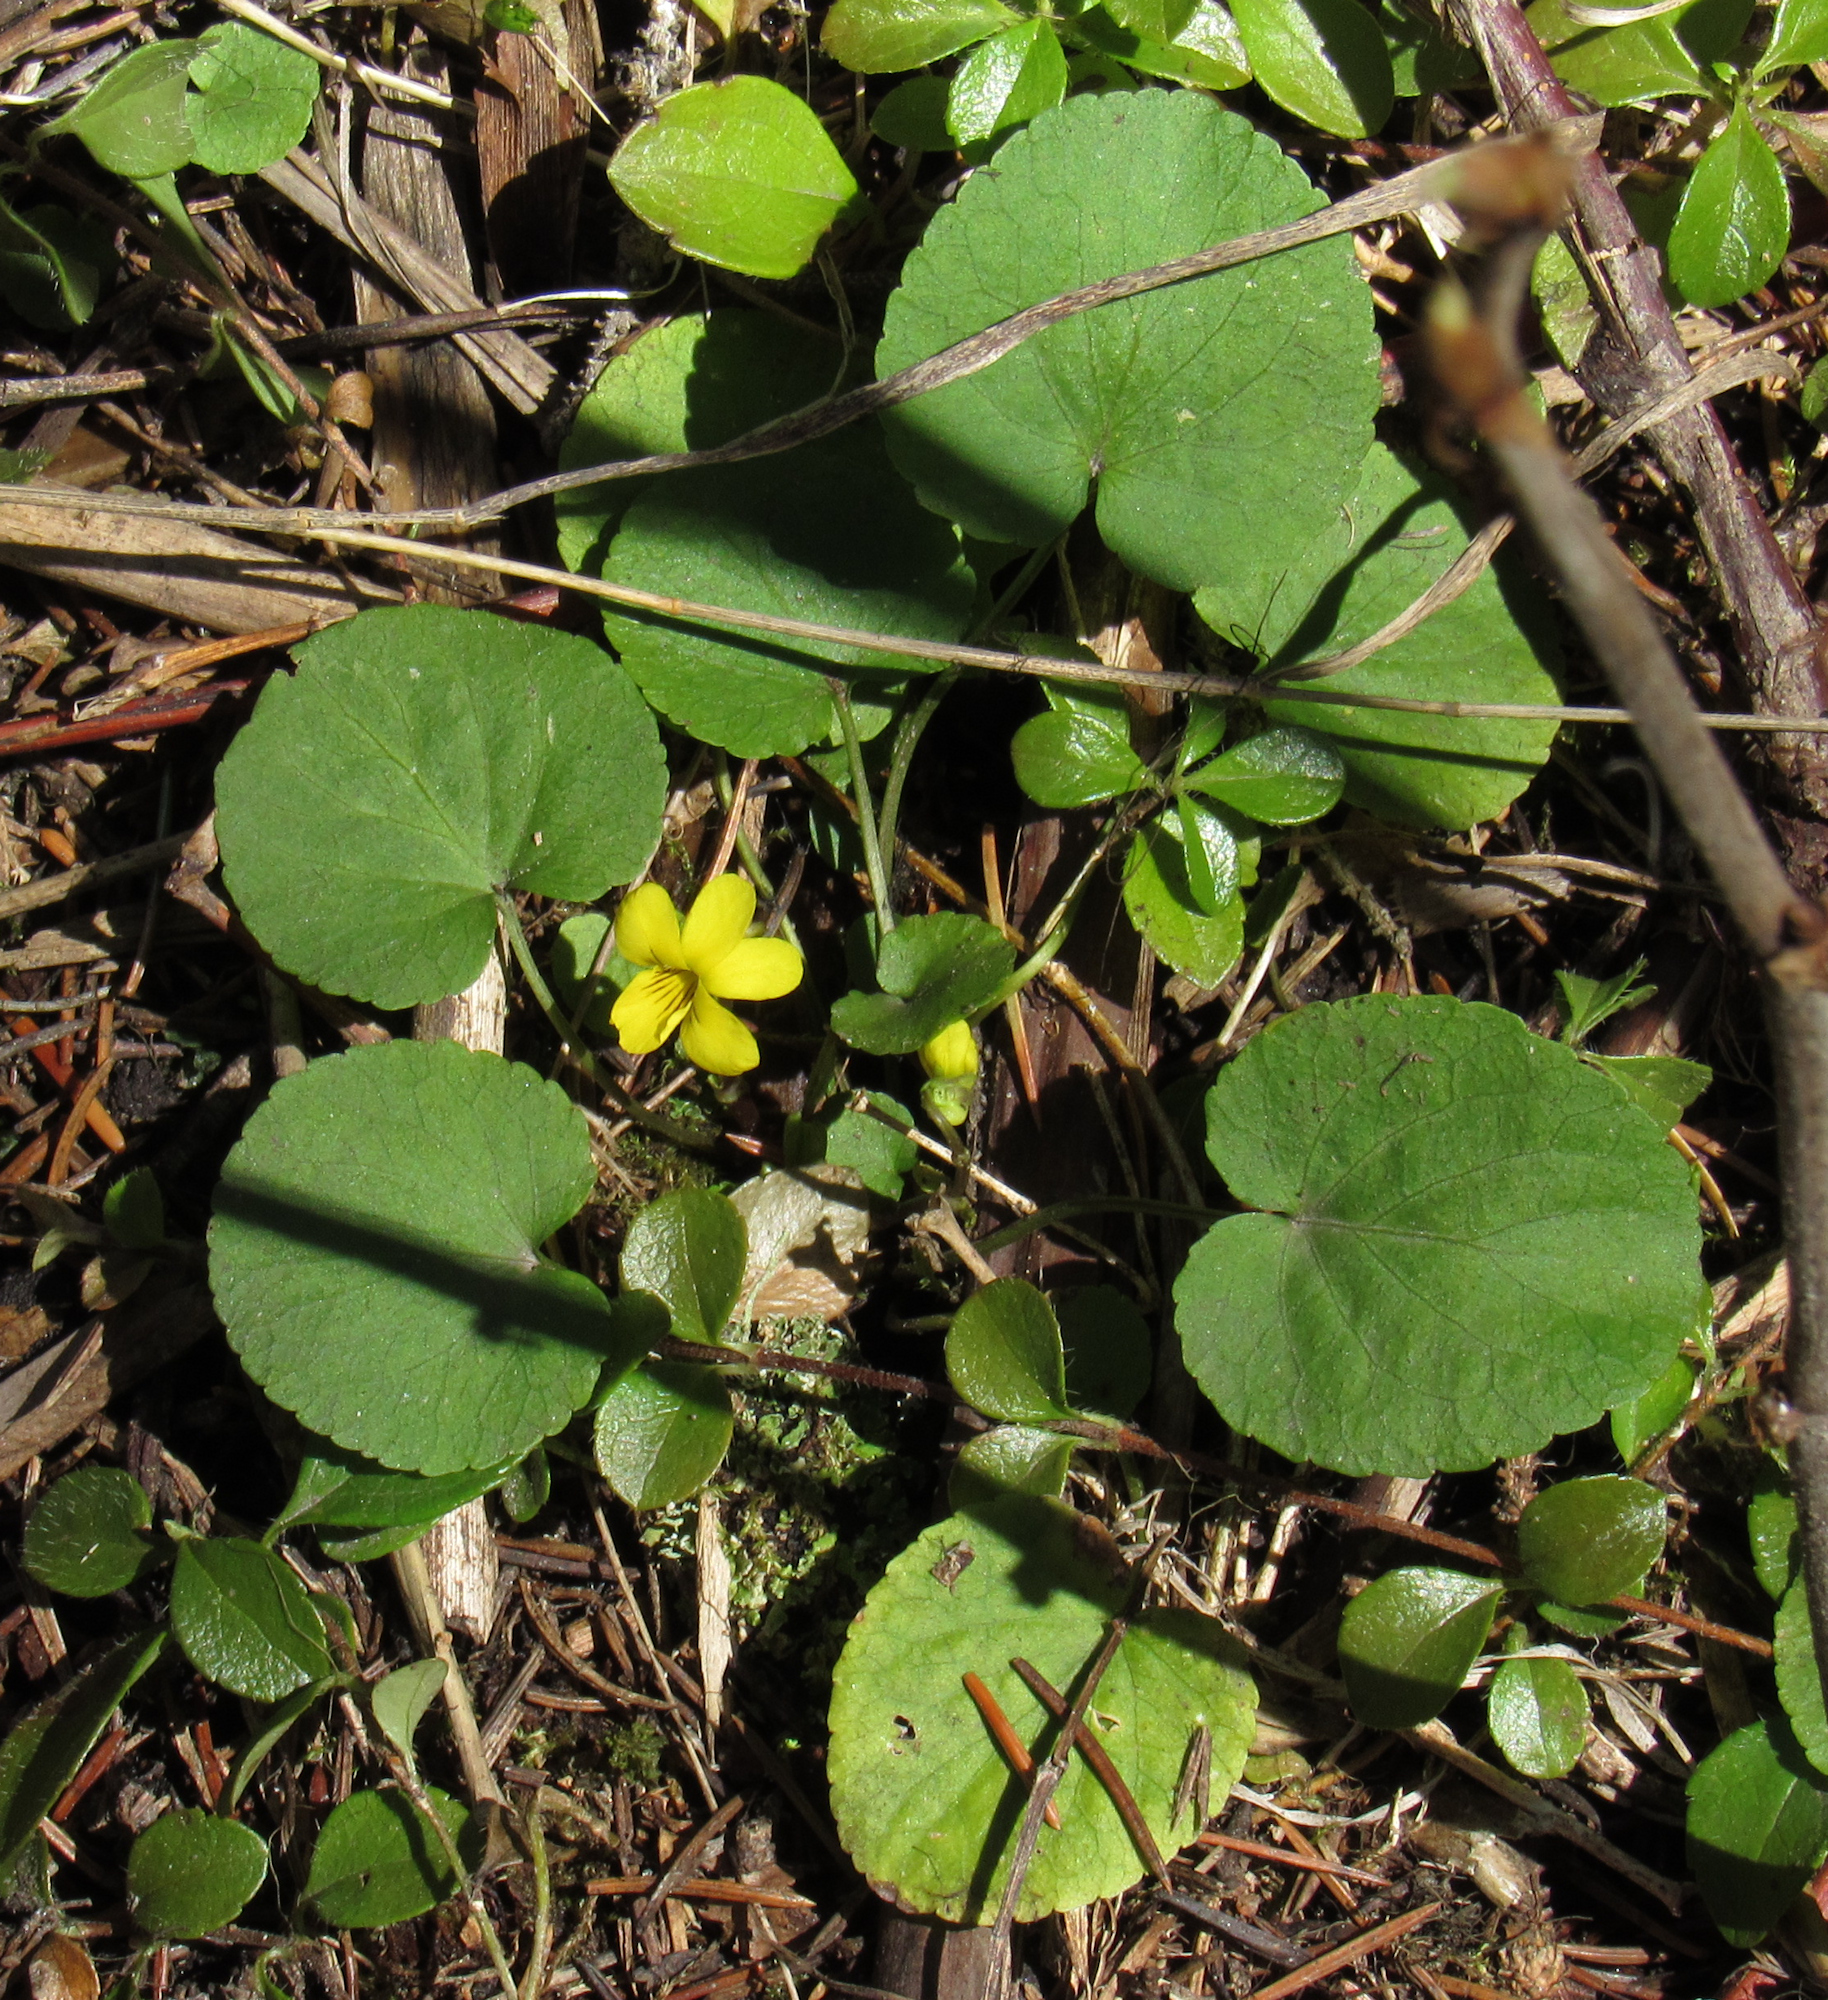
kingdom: Plantae
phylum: Tracheophyta
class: Magnoliopsida
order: Malpighiales
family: Violaceae
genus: Viola
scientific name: Viola orbiculata
